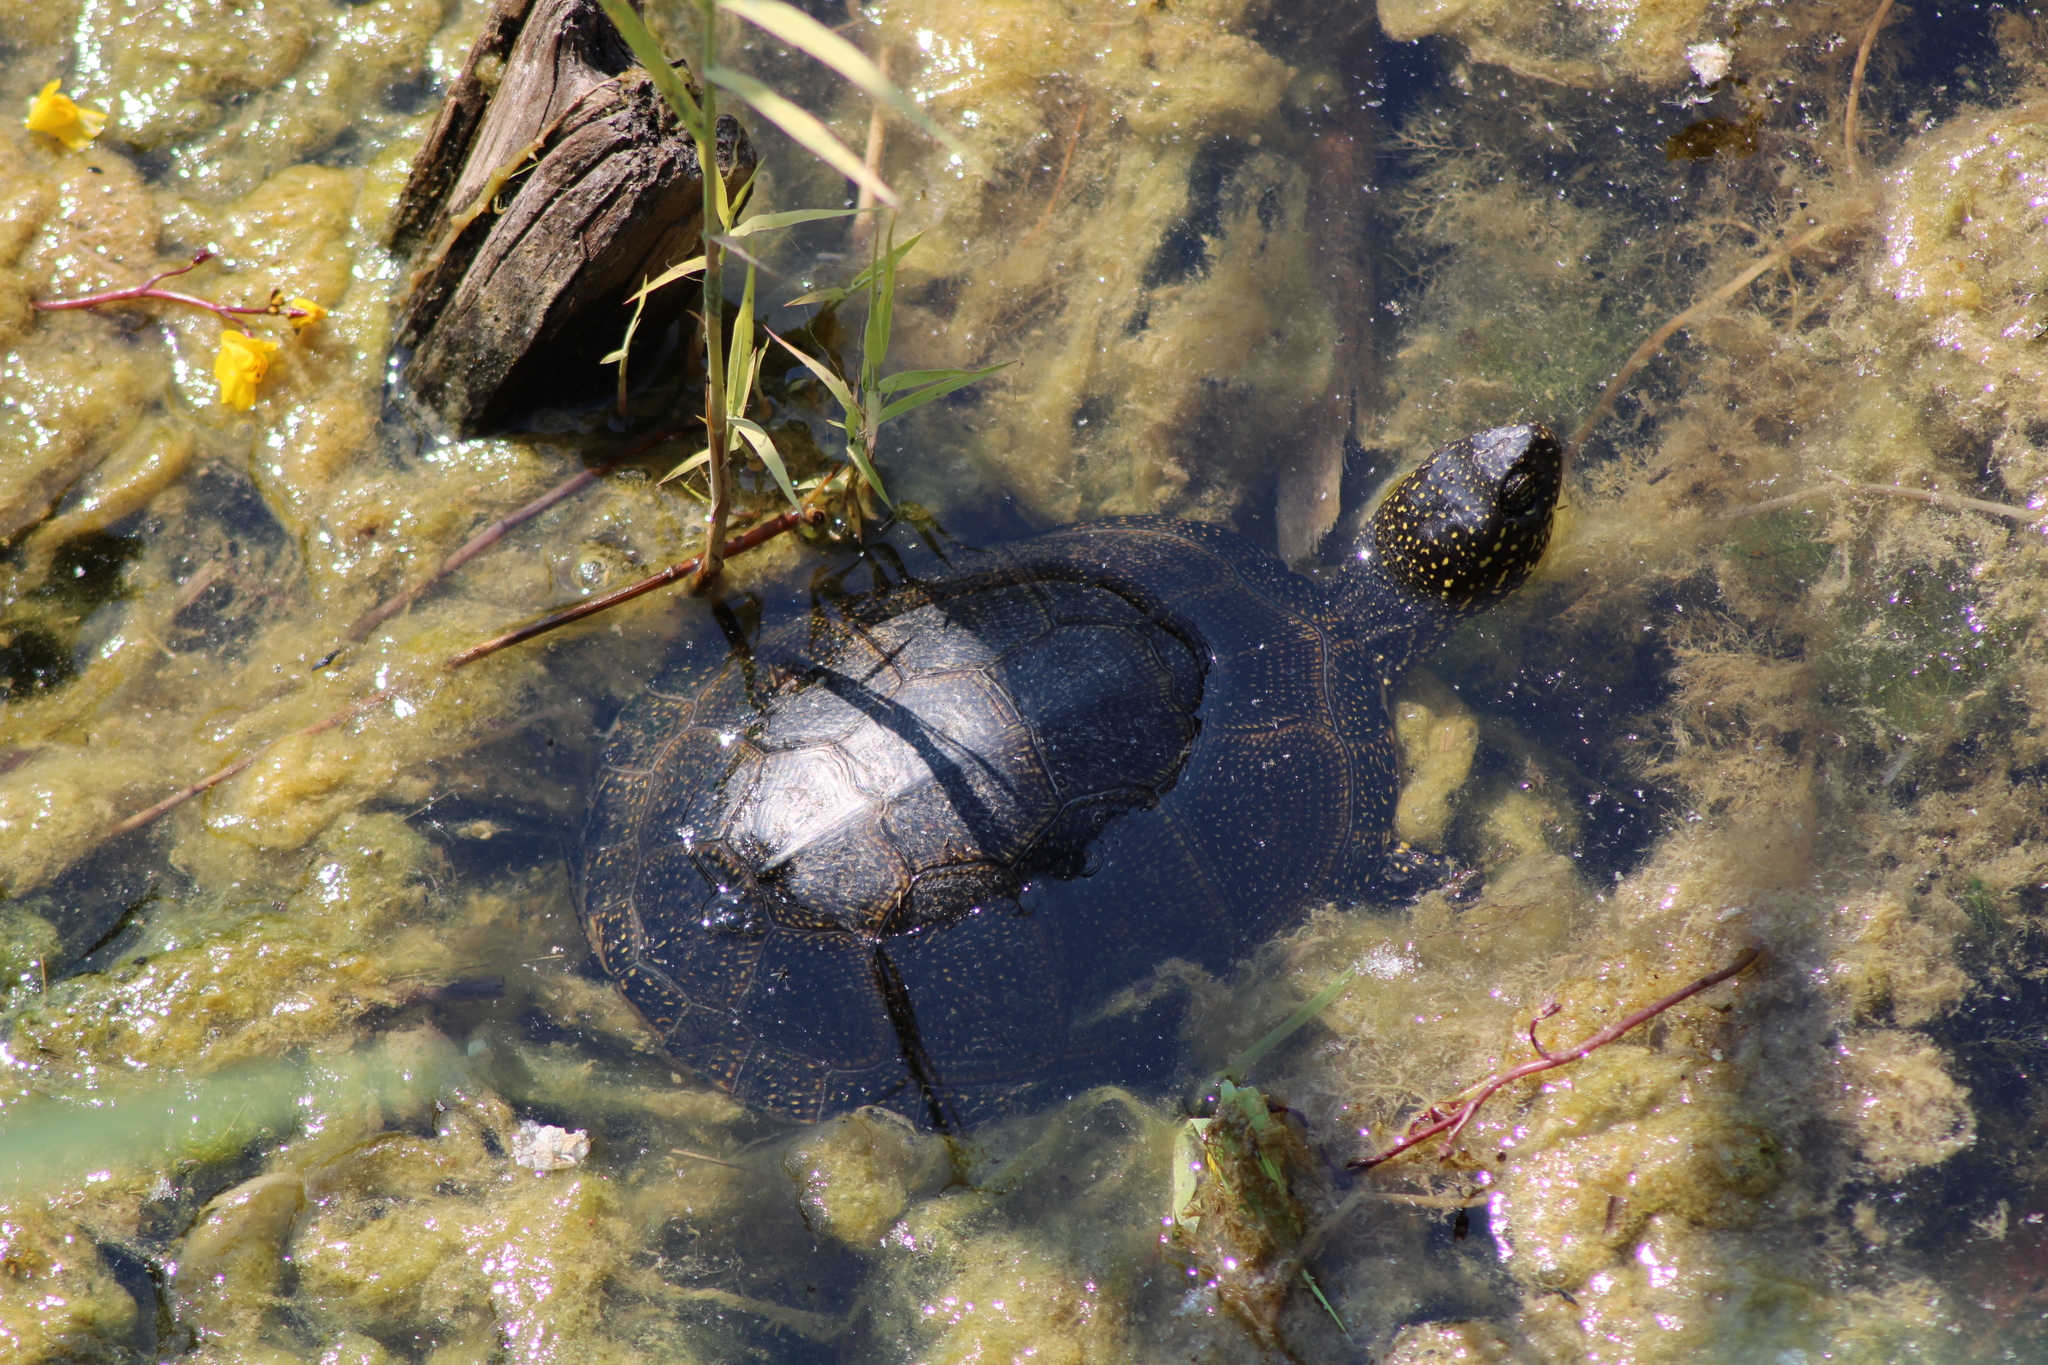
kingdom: Animalia
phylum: Chordata
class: Testudines
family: Emydidae
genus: Emys
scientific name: Emys orbicularis
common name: European pond turtle
